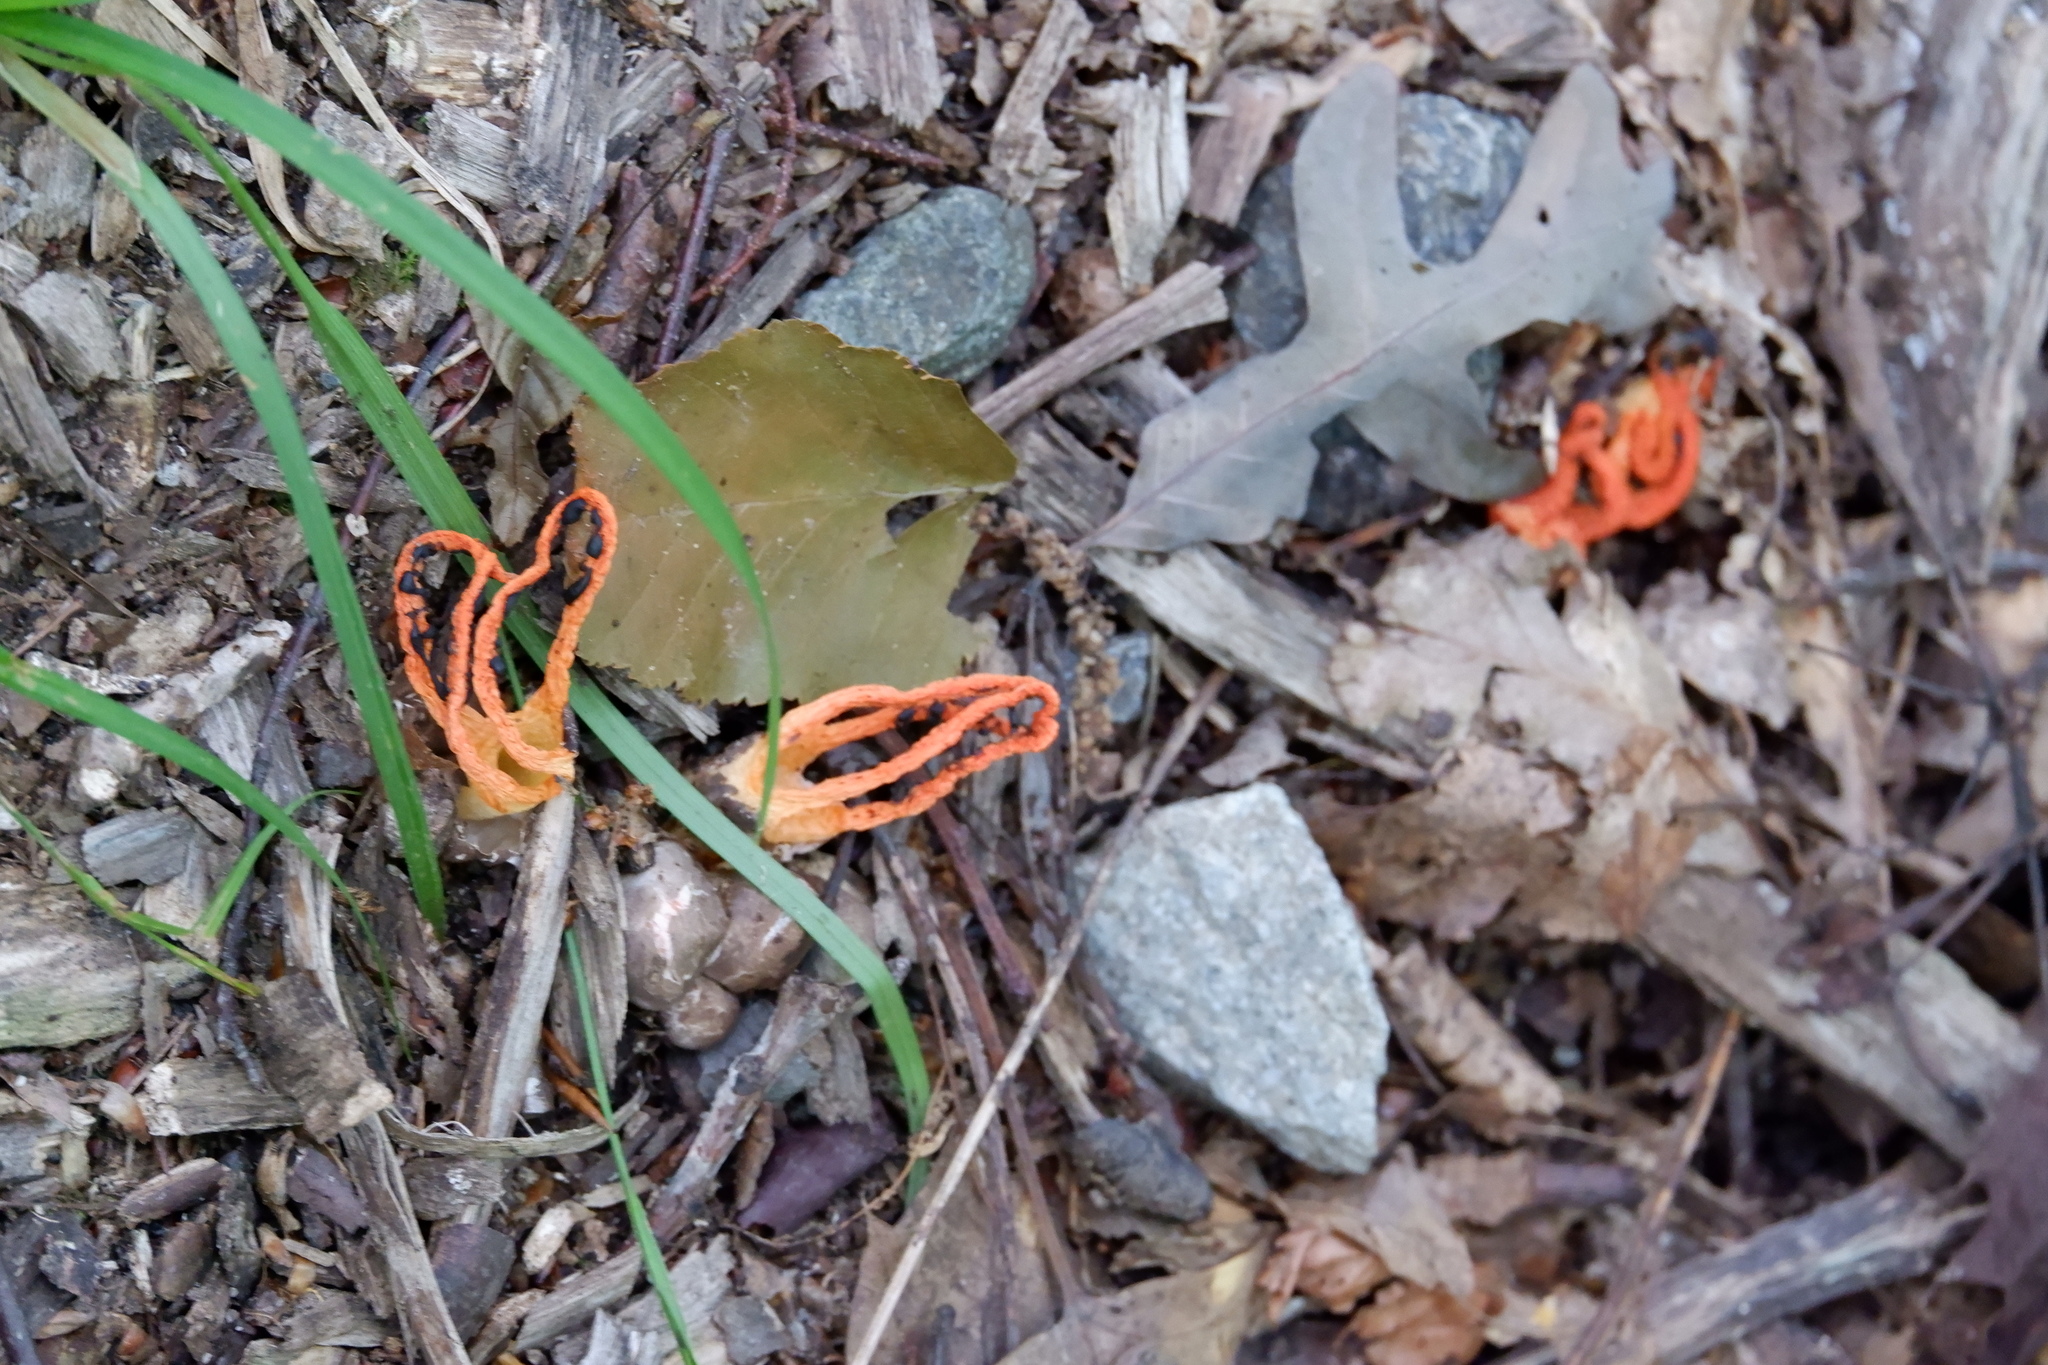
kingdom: Fungi
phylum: Basidiomycota
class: Agaricomycetes
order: Phallales
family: Phallaceae
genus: Pseudocolus
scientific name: Pseudocolus fusiformis
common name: Stinky squid
